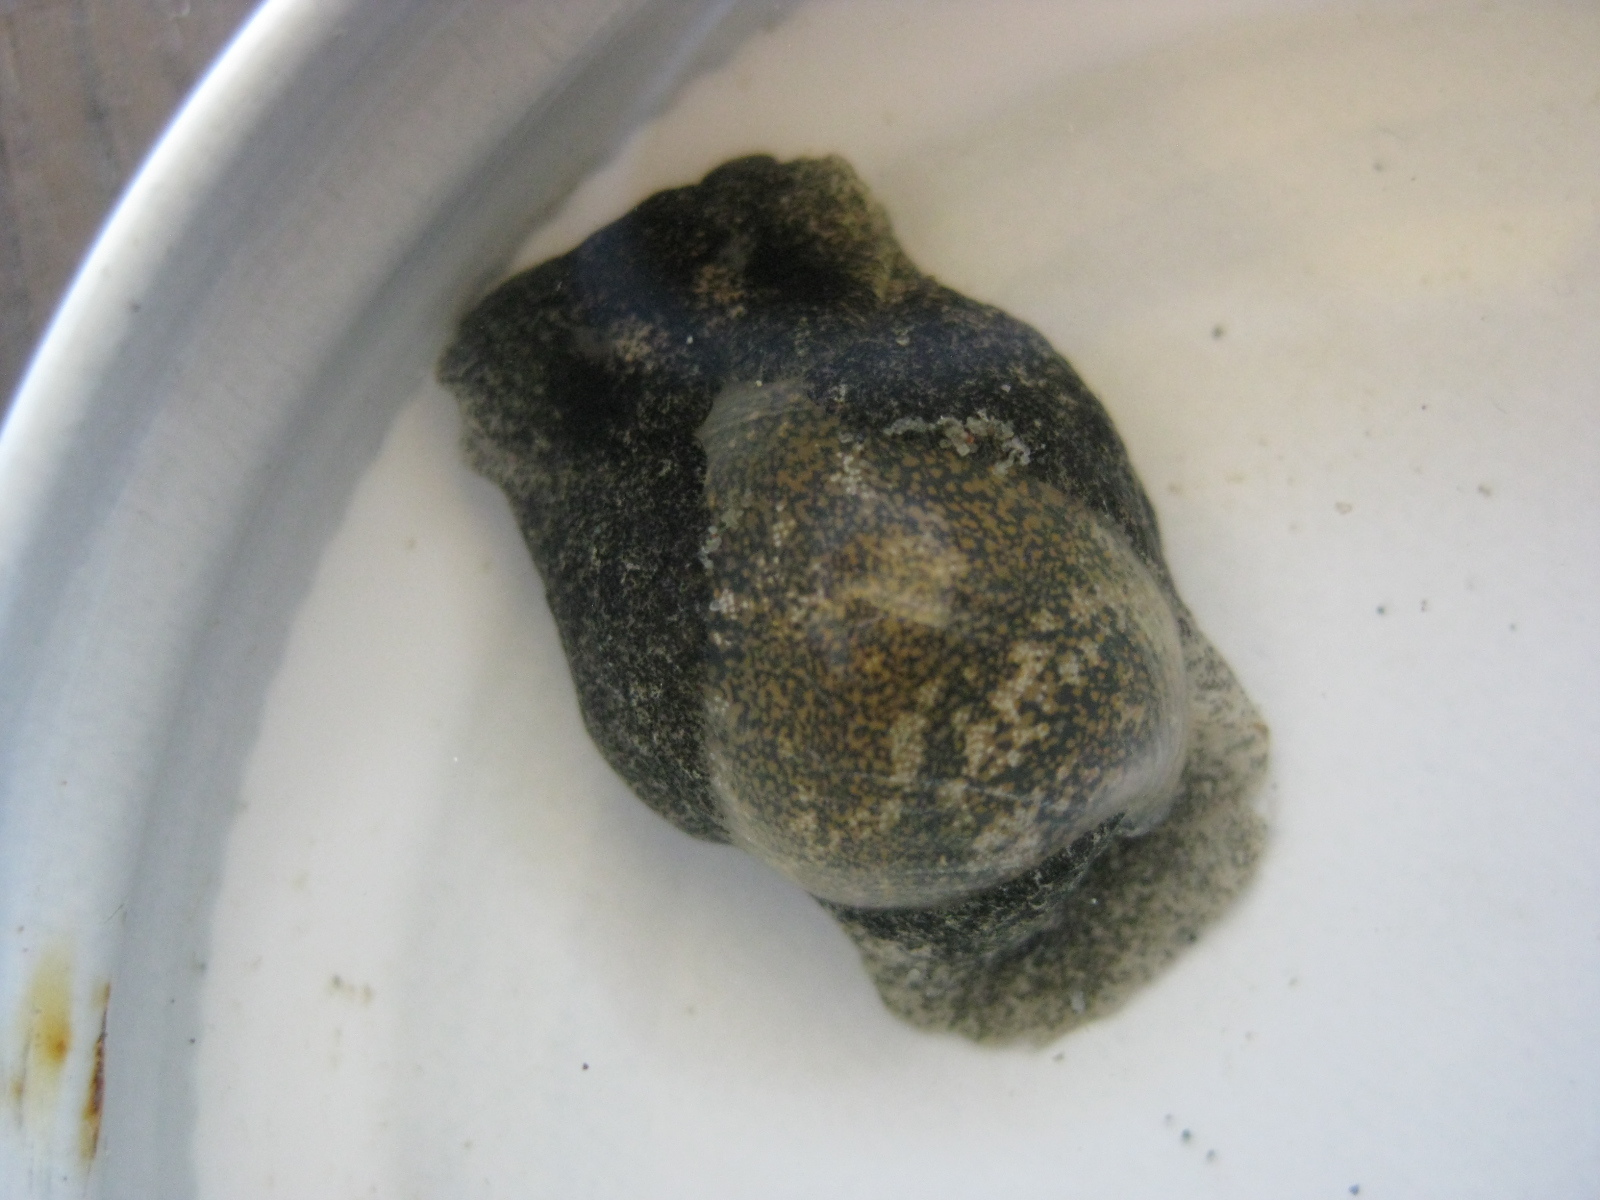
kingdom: Animalia
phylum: Mollusca
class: Gastropoda
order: Cephalaspidea
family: Haminoeidae
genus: Papawera
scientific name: Papawera zelandiae
